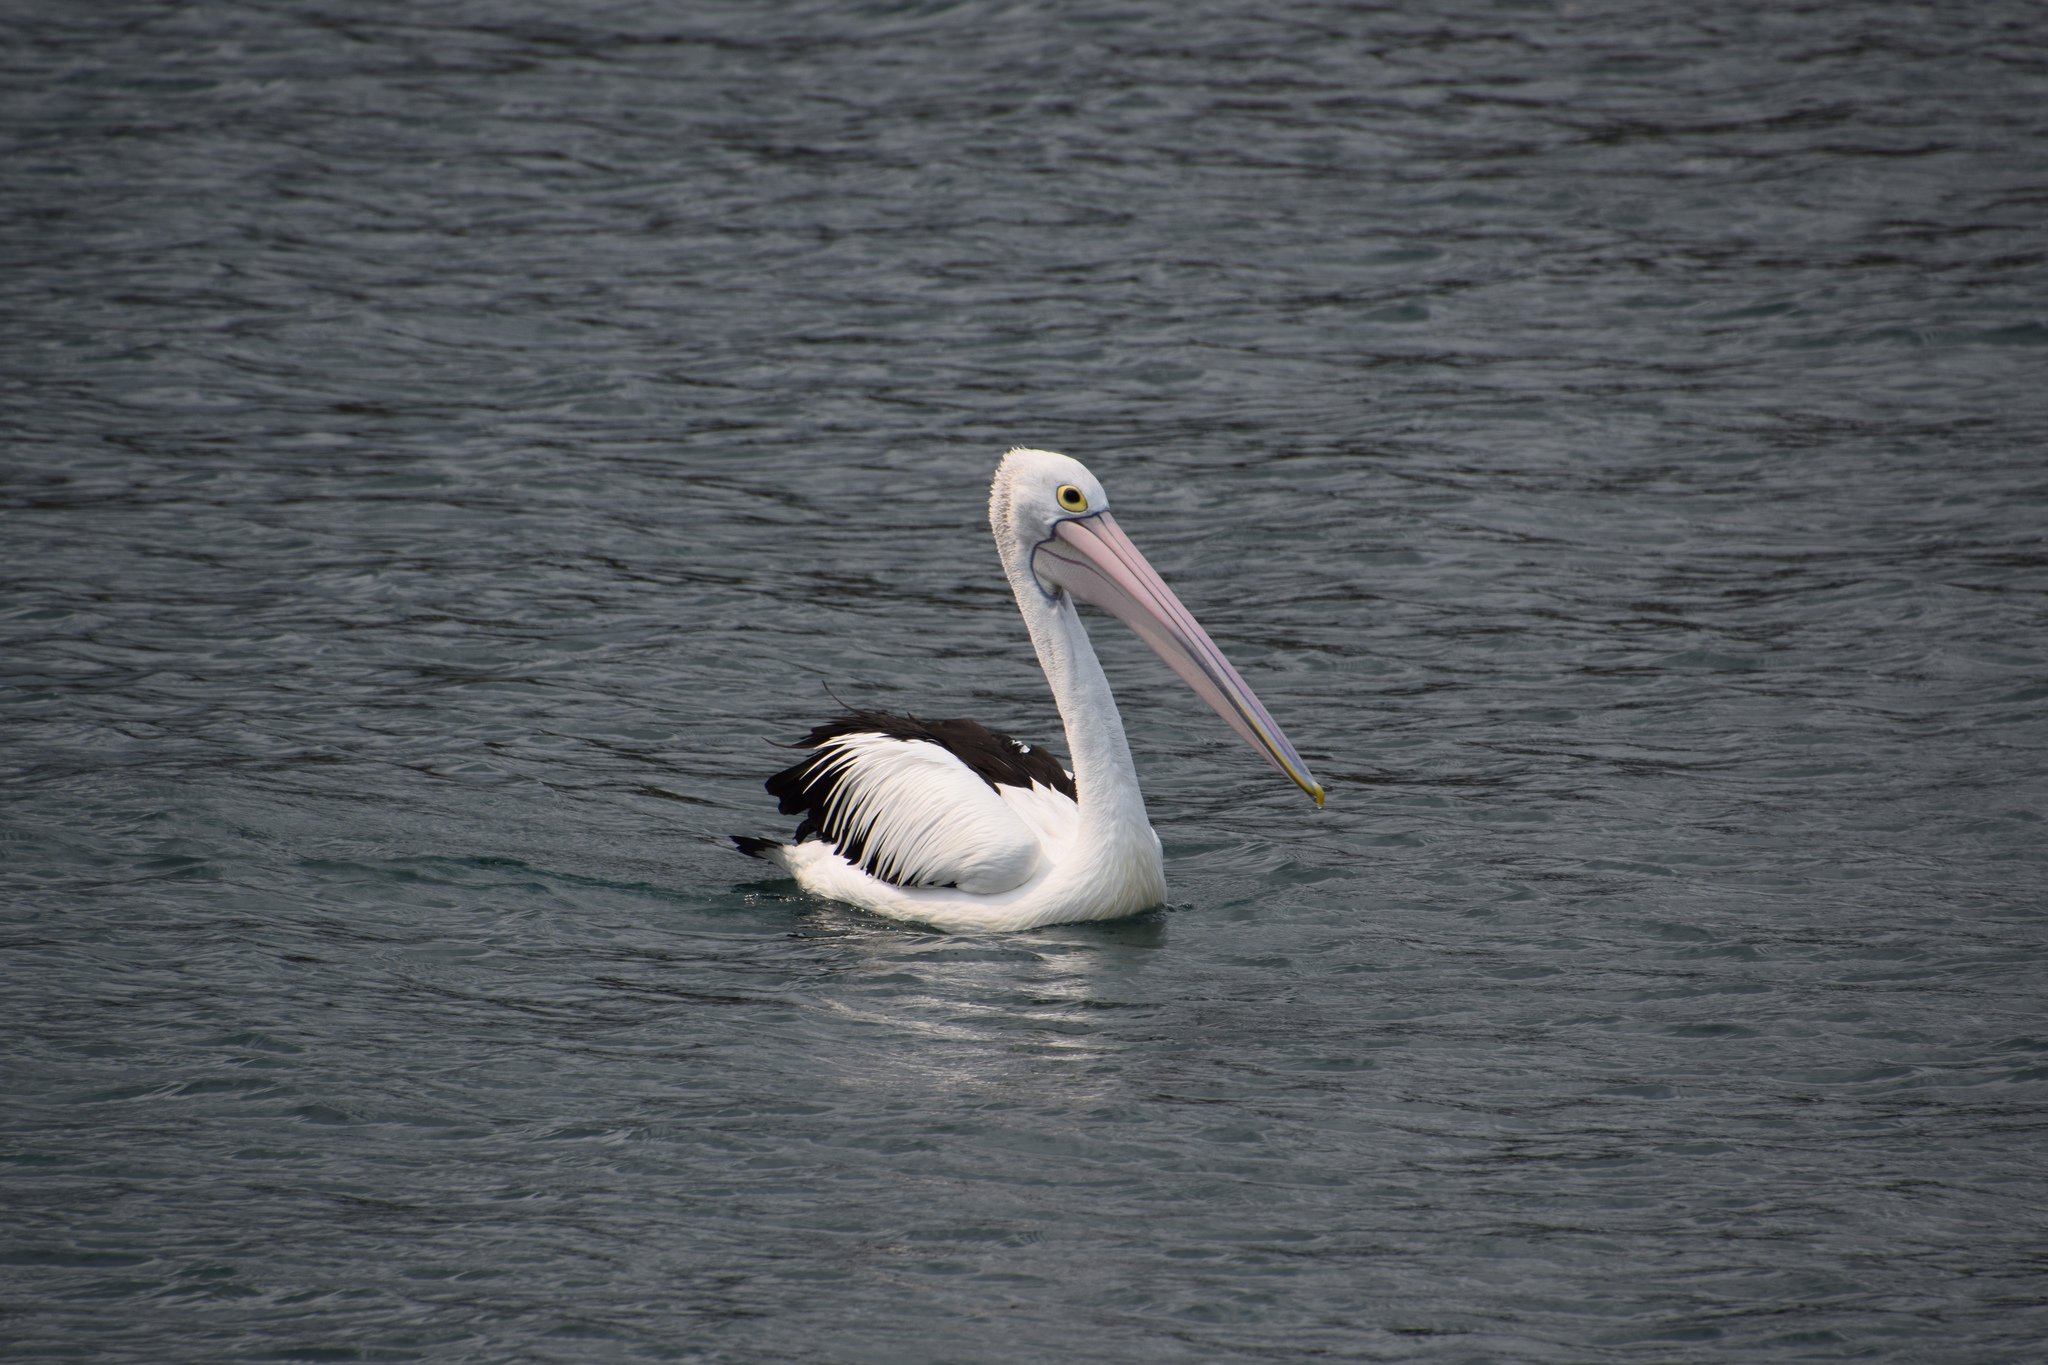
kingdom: Animalia
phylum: Chordata
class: Aves
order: Pelecaniformes
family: Pelecanidae
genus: Pelecanus
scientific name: Pelecanus conspicillatus
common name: Australian pelican
